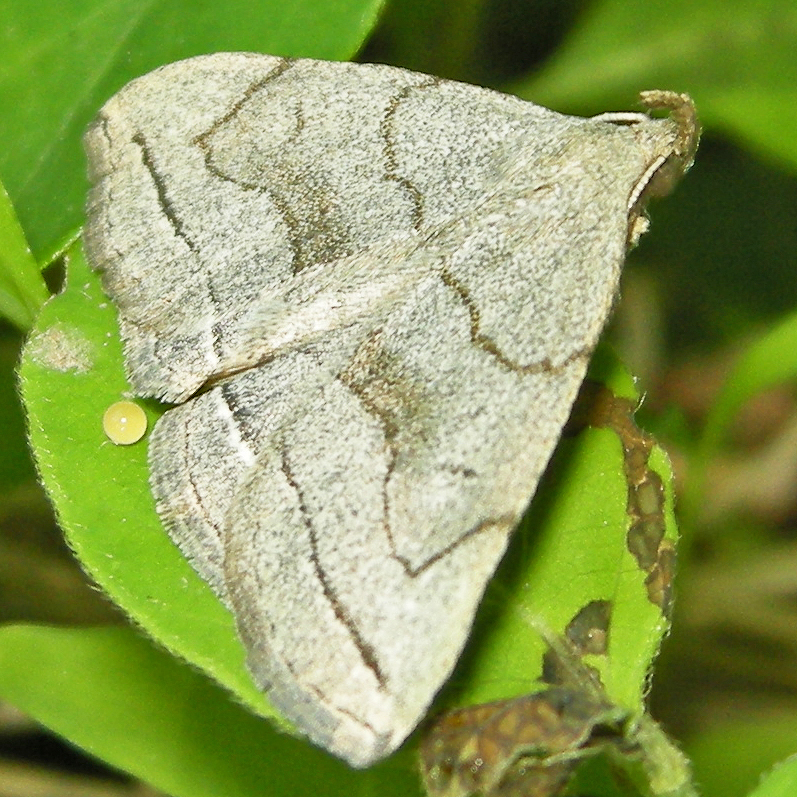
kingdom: Animalia
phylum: Arthropoda
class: Insecta
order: Lepidoptera
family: Erebidae
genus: Zanclognatha
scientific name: Zanclognatha pedipilalis
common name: Grayish fan-foot
